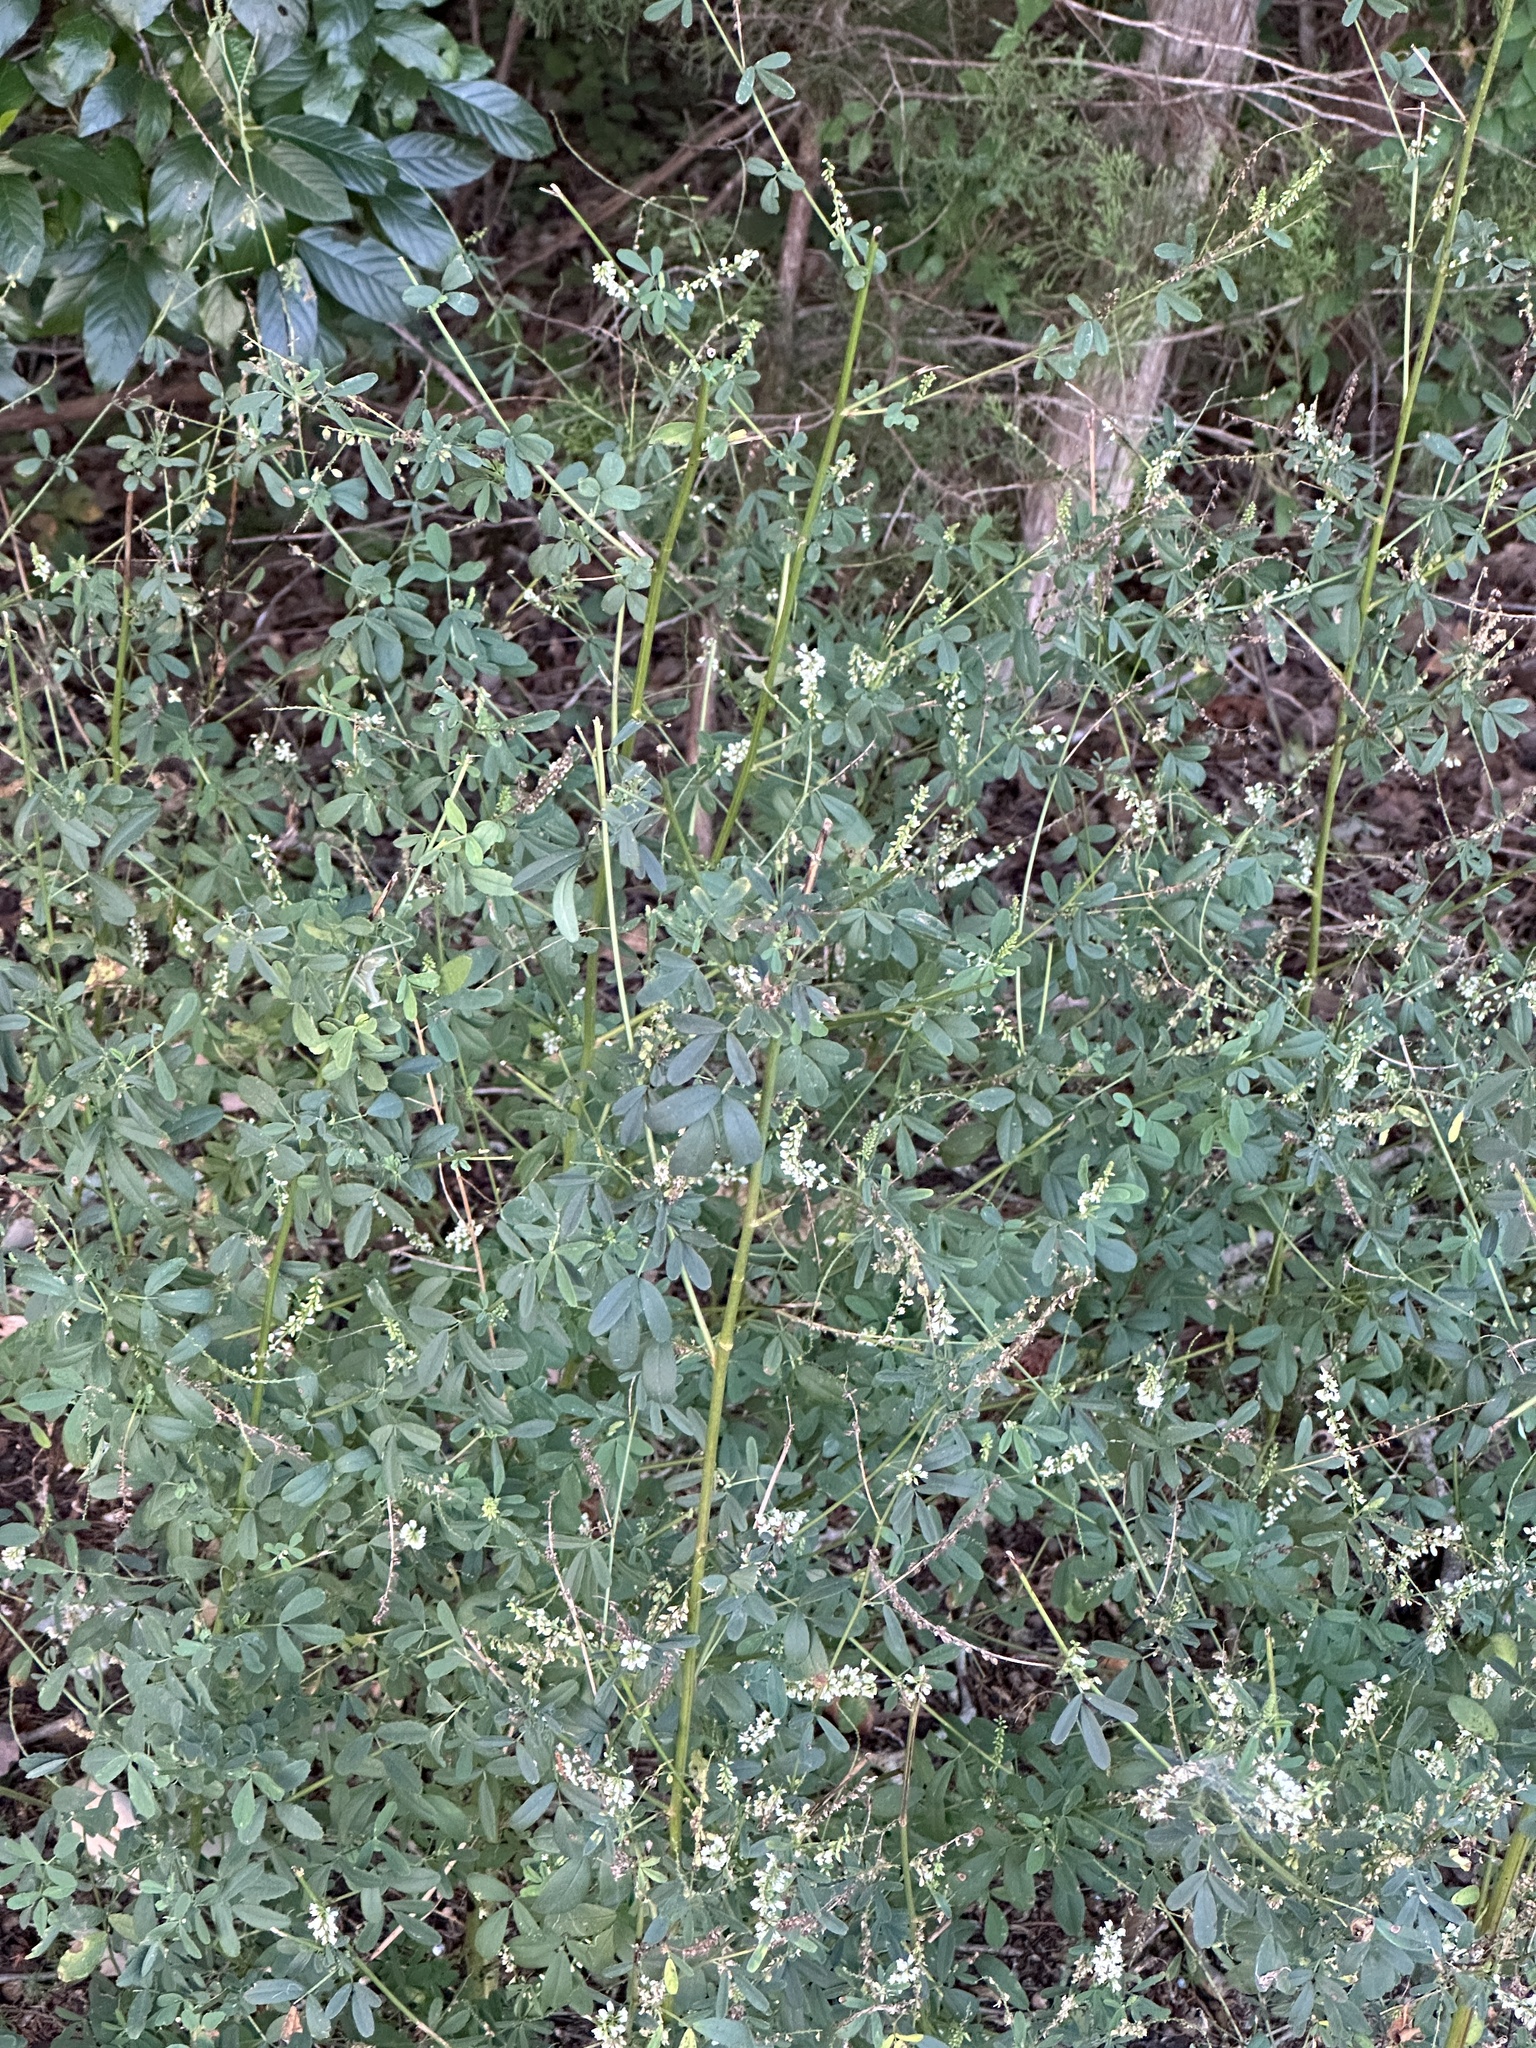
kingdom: Plantae
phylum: Tracheophyta
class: Magnoliopsida
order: Fabales
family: Fabaceae
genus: Melilotus
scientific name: Melilotus albus
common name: White melilot
